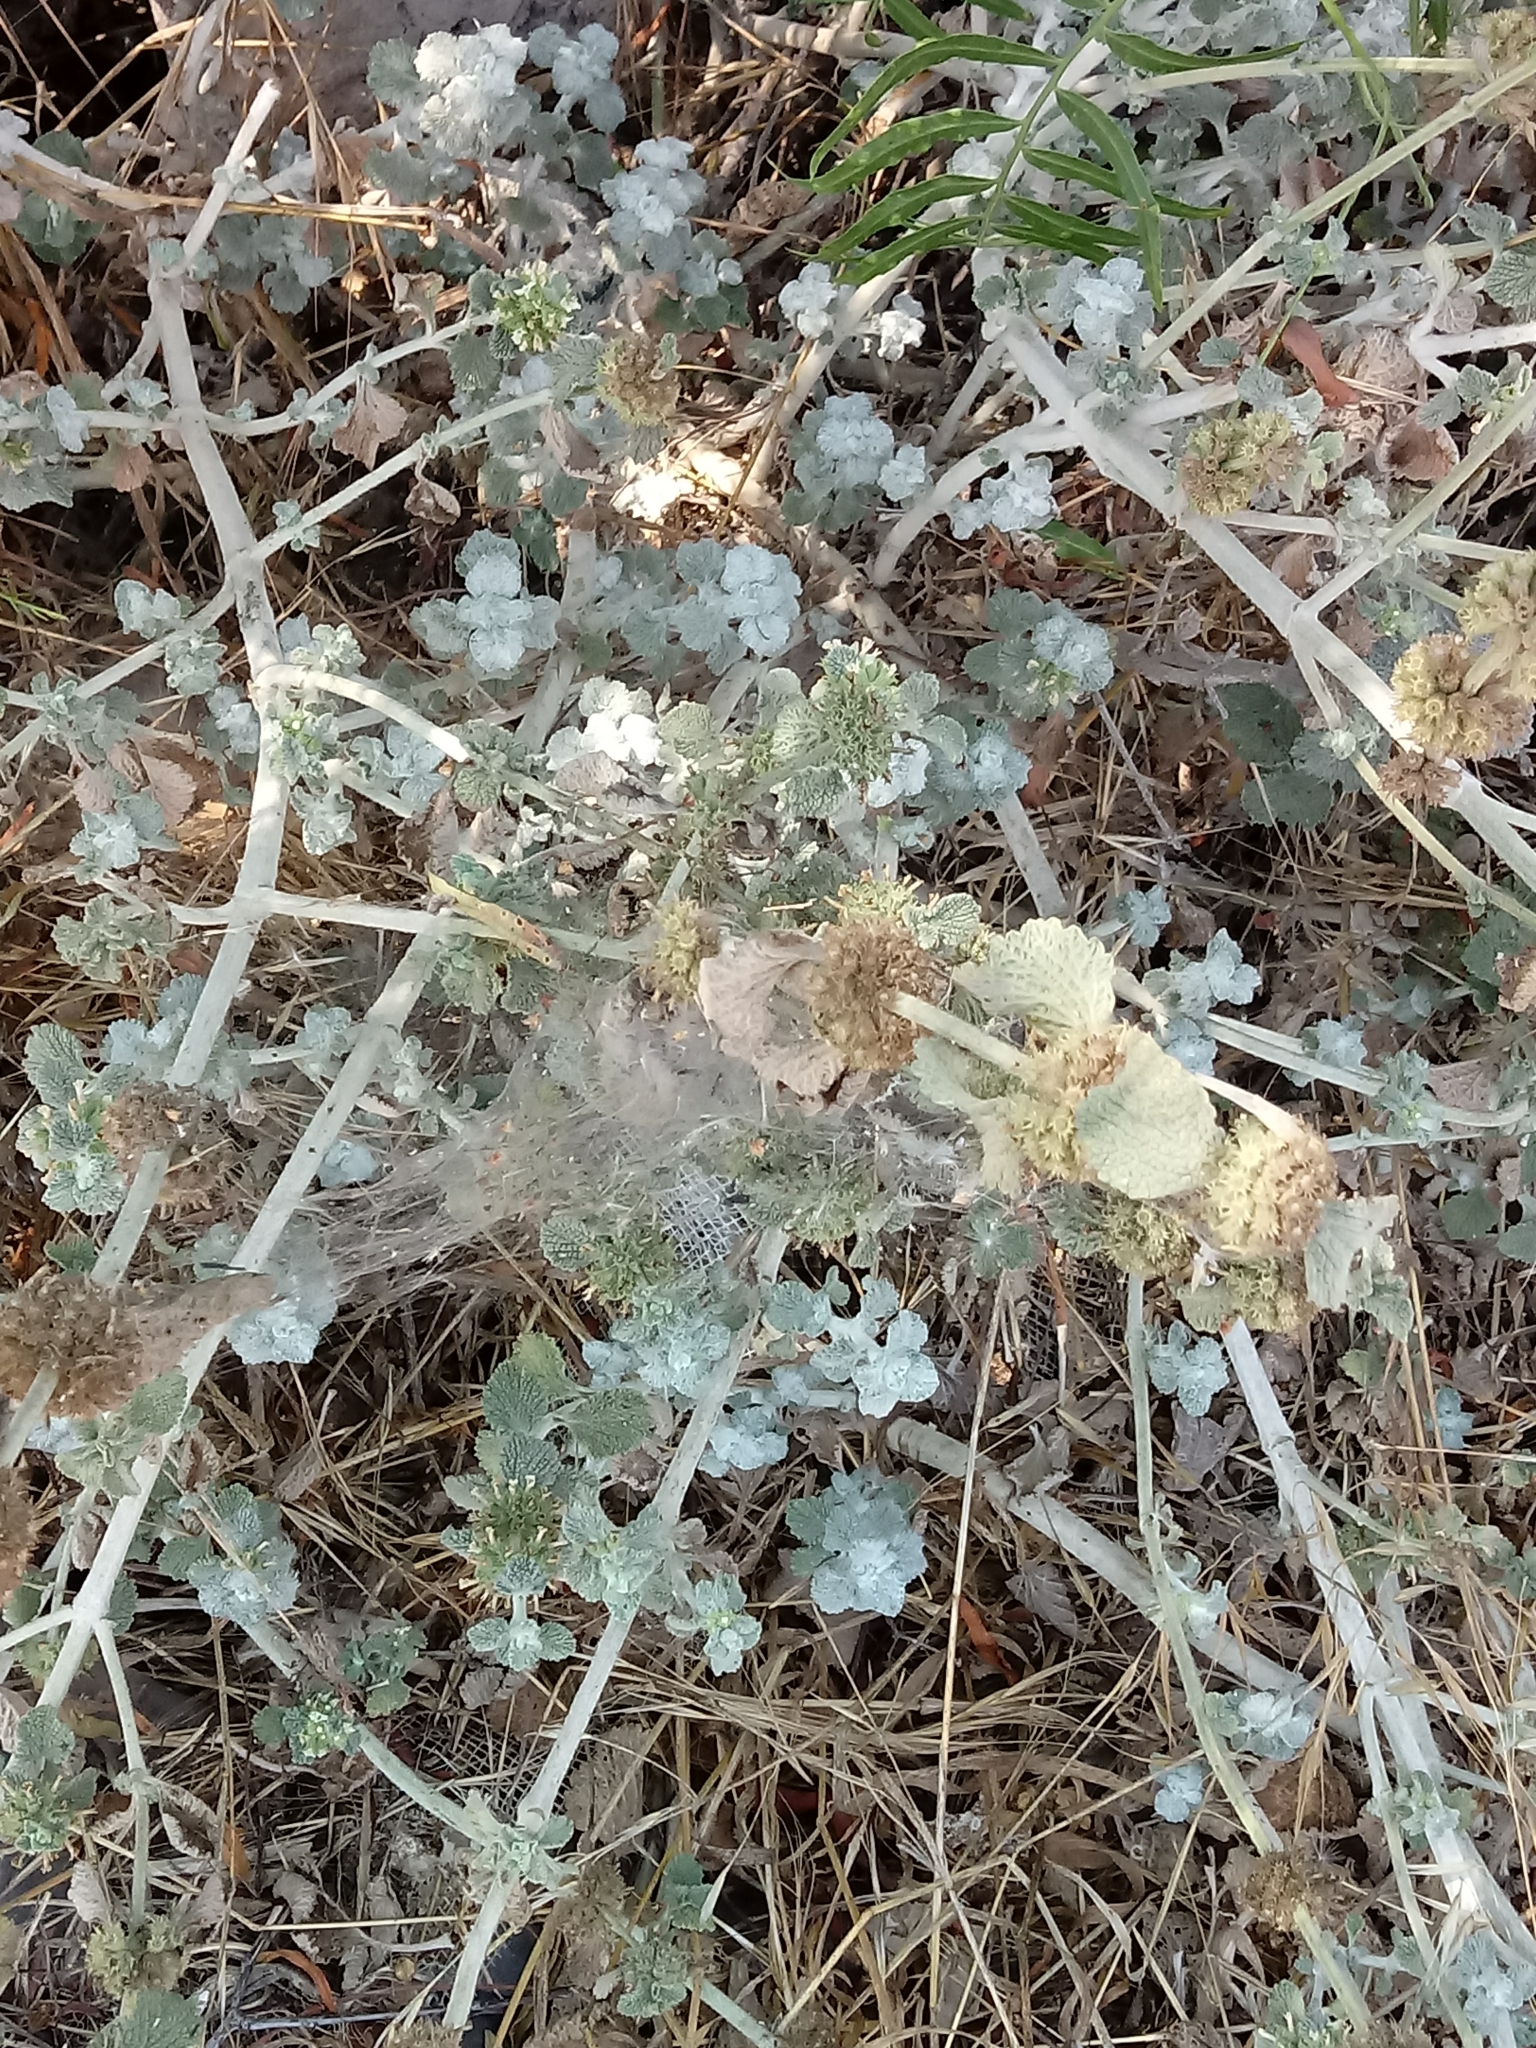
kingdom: Plantae
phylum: Tracheophyta
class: Magnoliopsida
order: Lamiales
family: Lamiaceae
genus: Marrubium
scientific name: Marrubium vulgare
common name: Horehound
